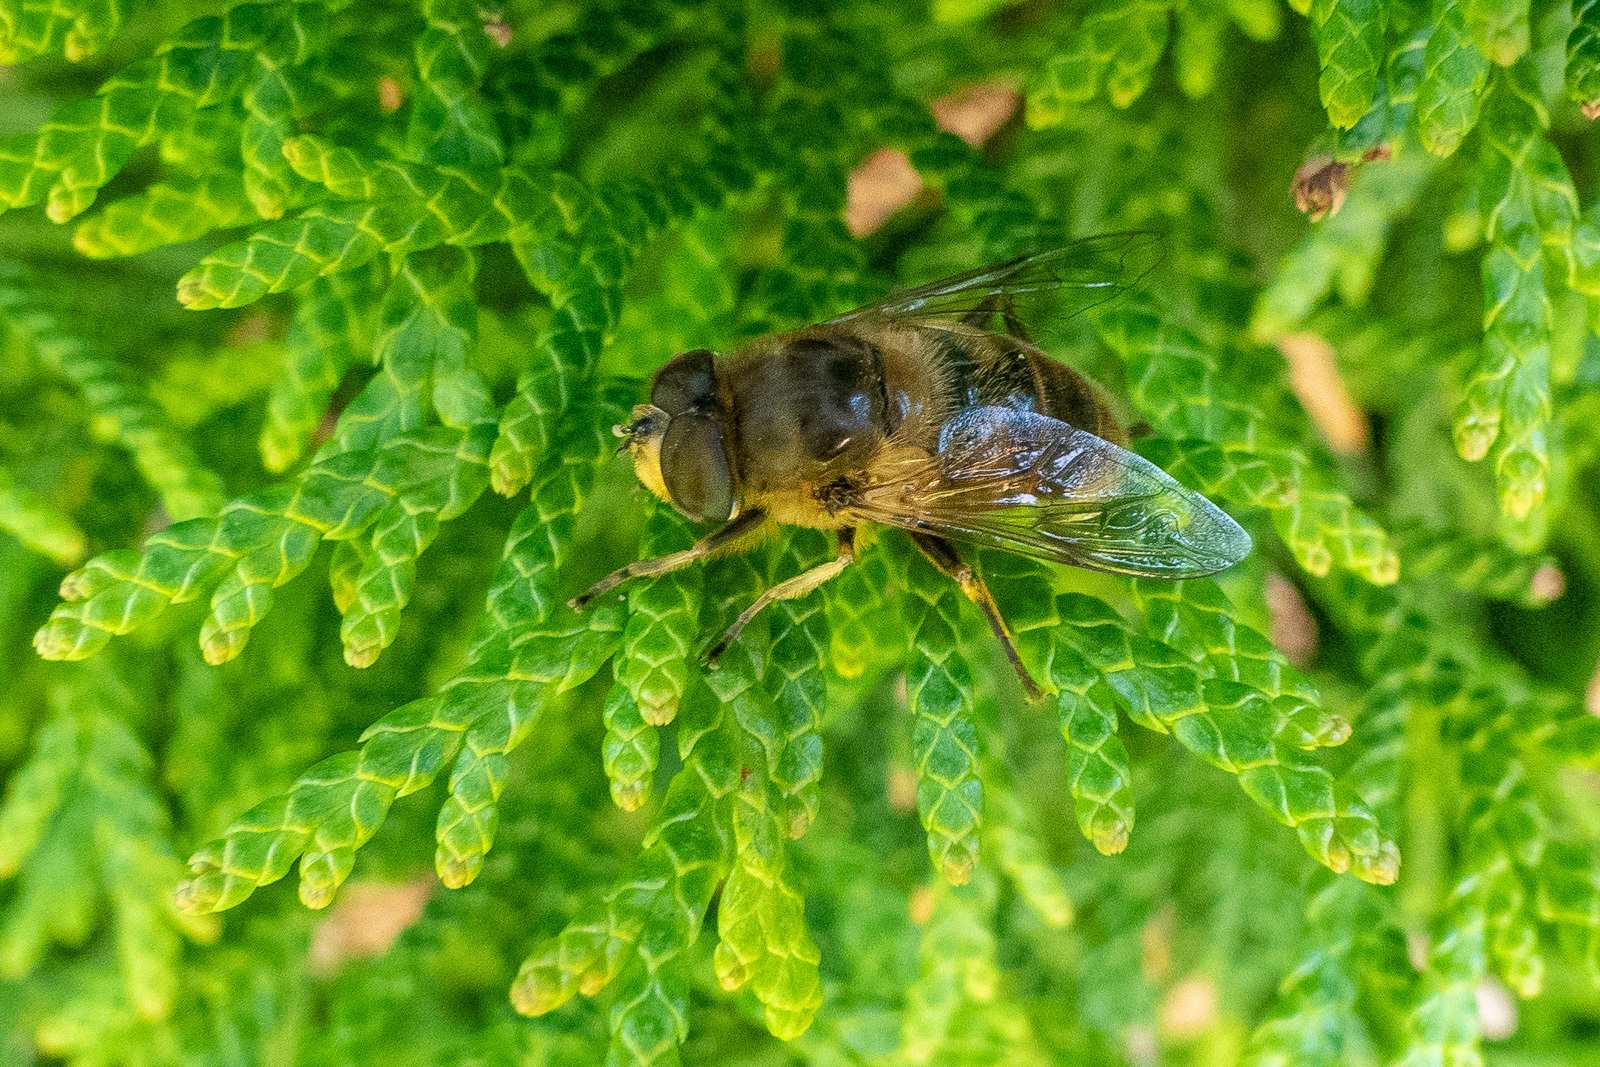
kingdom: Animalia
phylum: Arthropoda
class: Insecta
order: Diptera
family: Syrphidae
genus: Eristalis
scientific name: Eristalis tenax
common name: Drone fly
